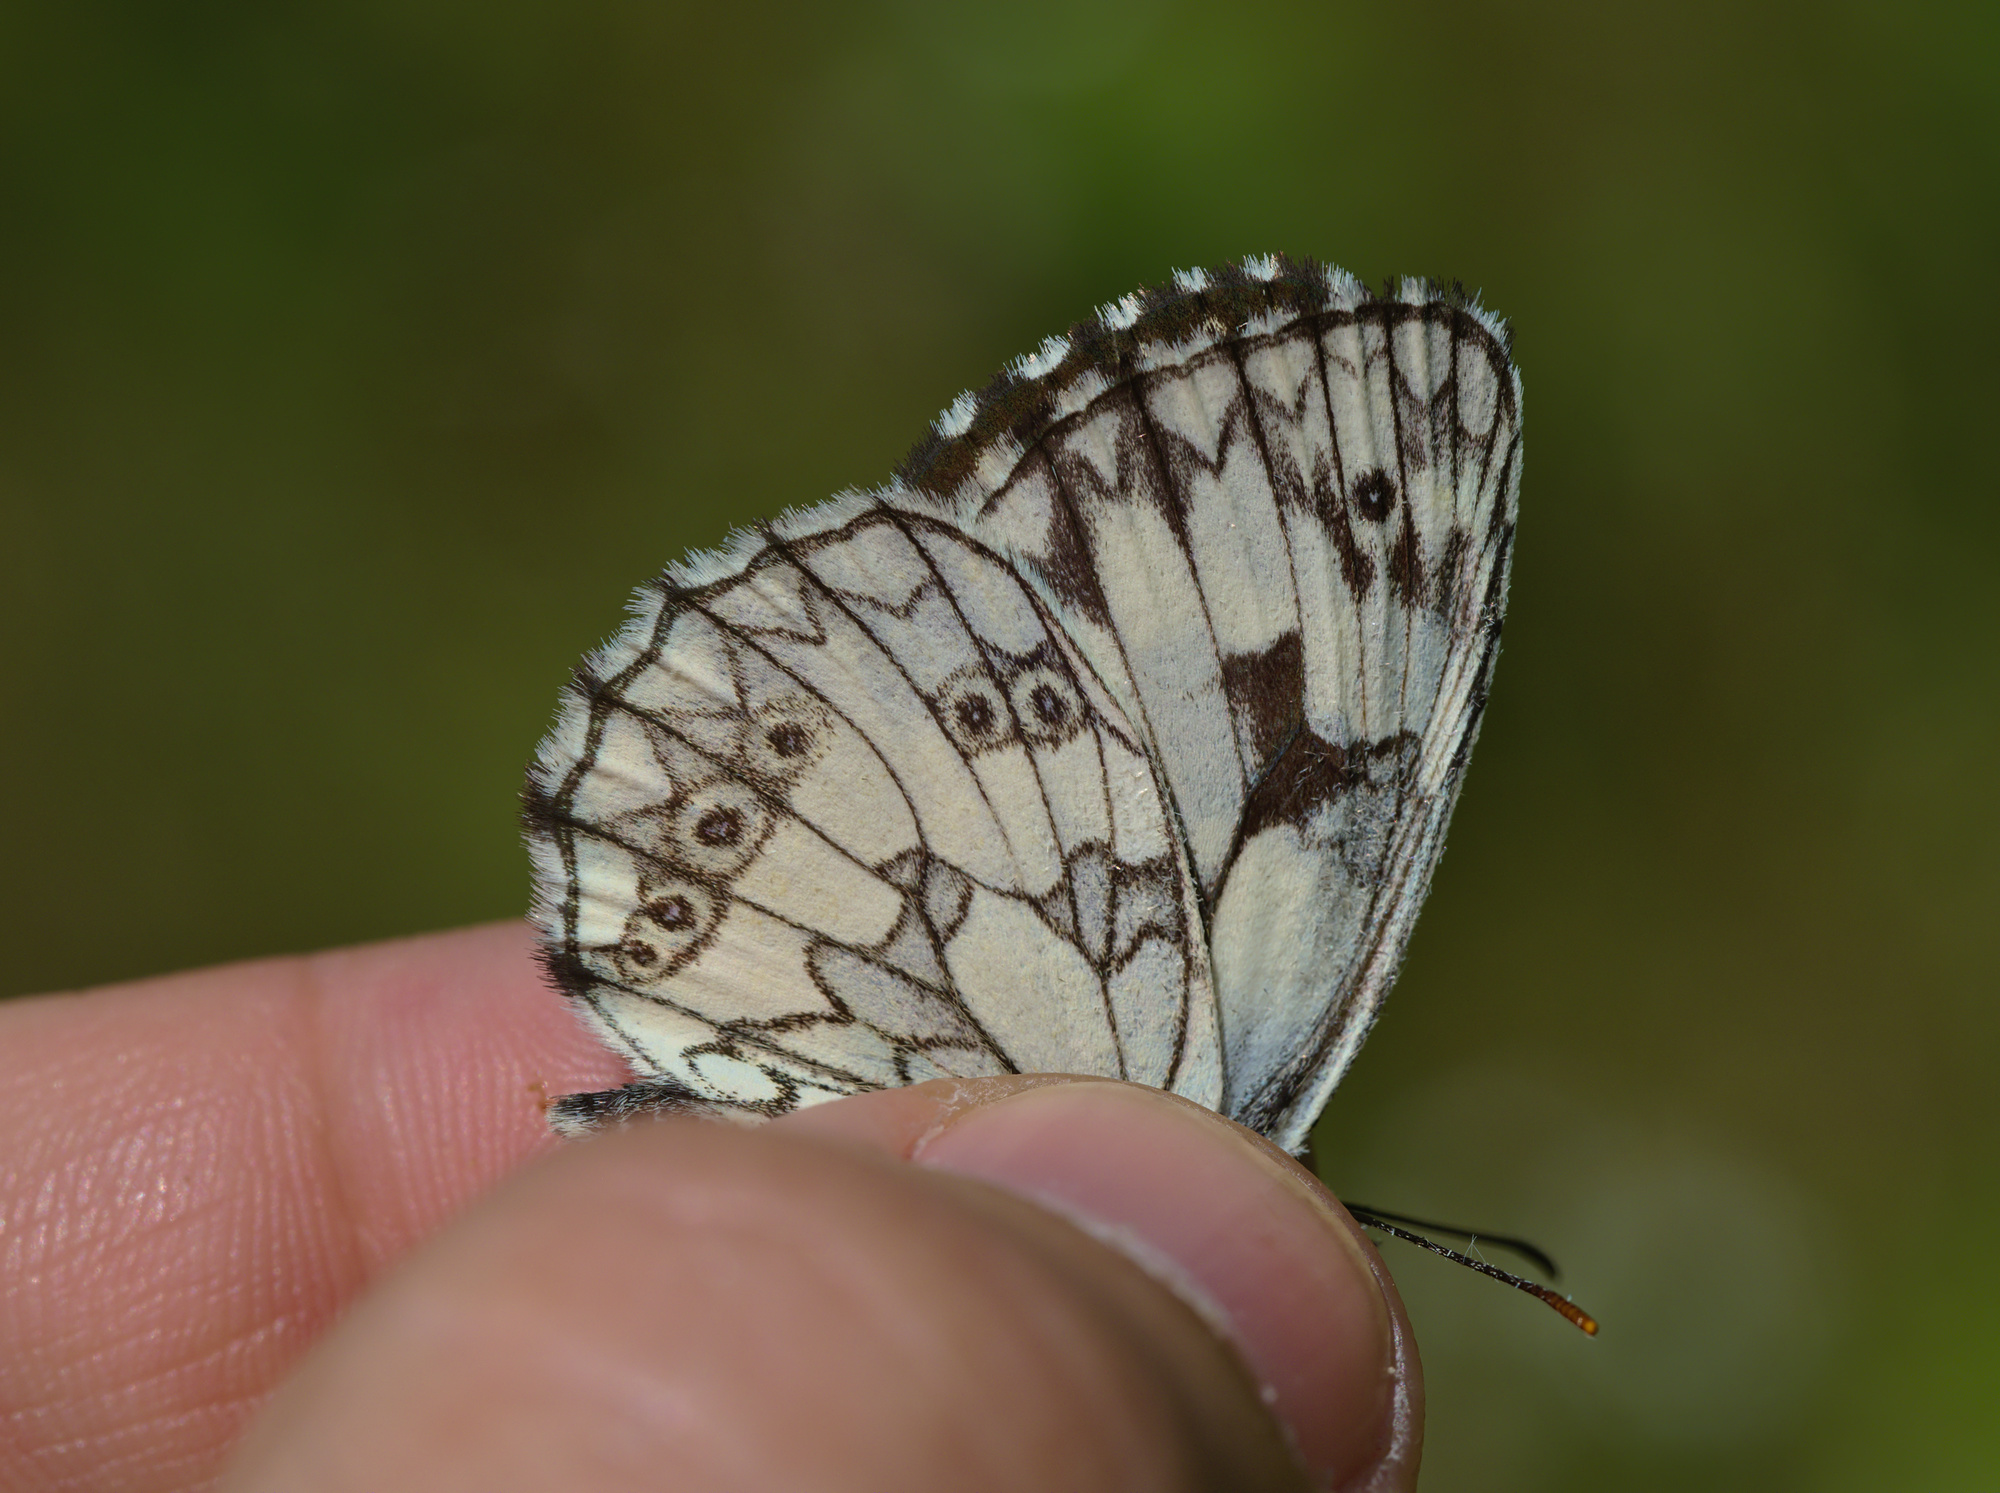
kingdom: Animalia
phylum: Arthropoda
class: Insecta
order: Lepidoptera
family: Nymphalidae
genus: Melanargia
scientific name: Melanargia galathea
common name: Marbled white
